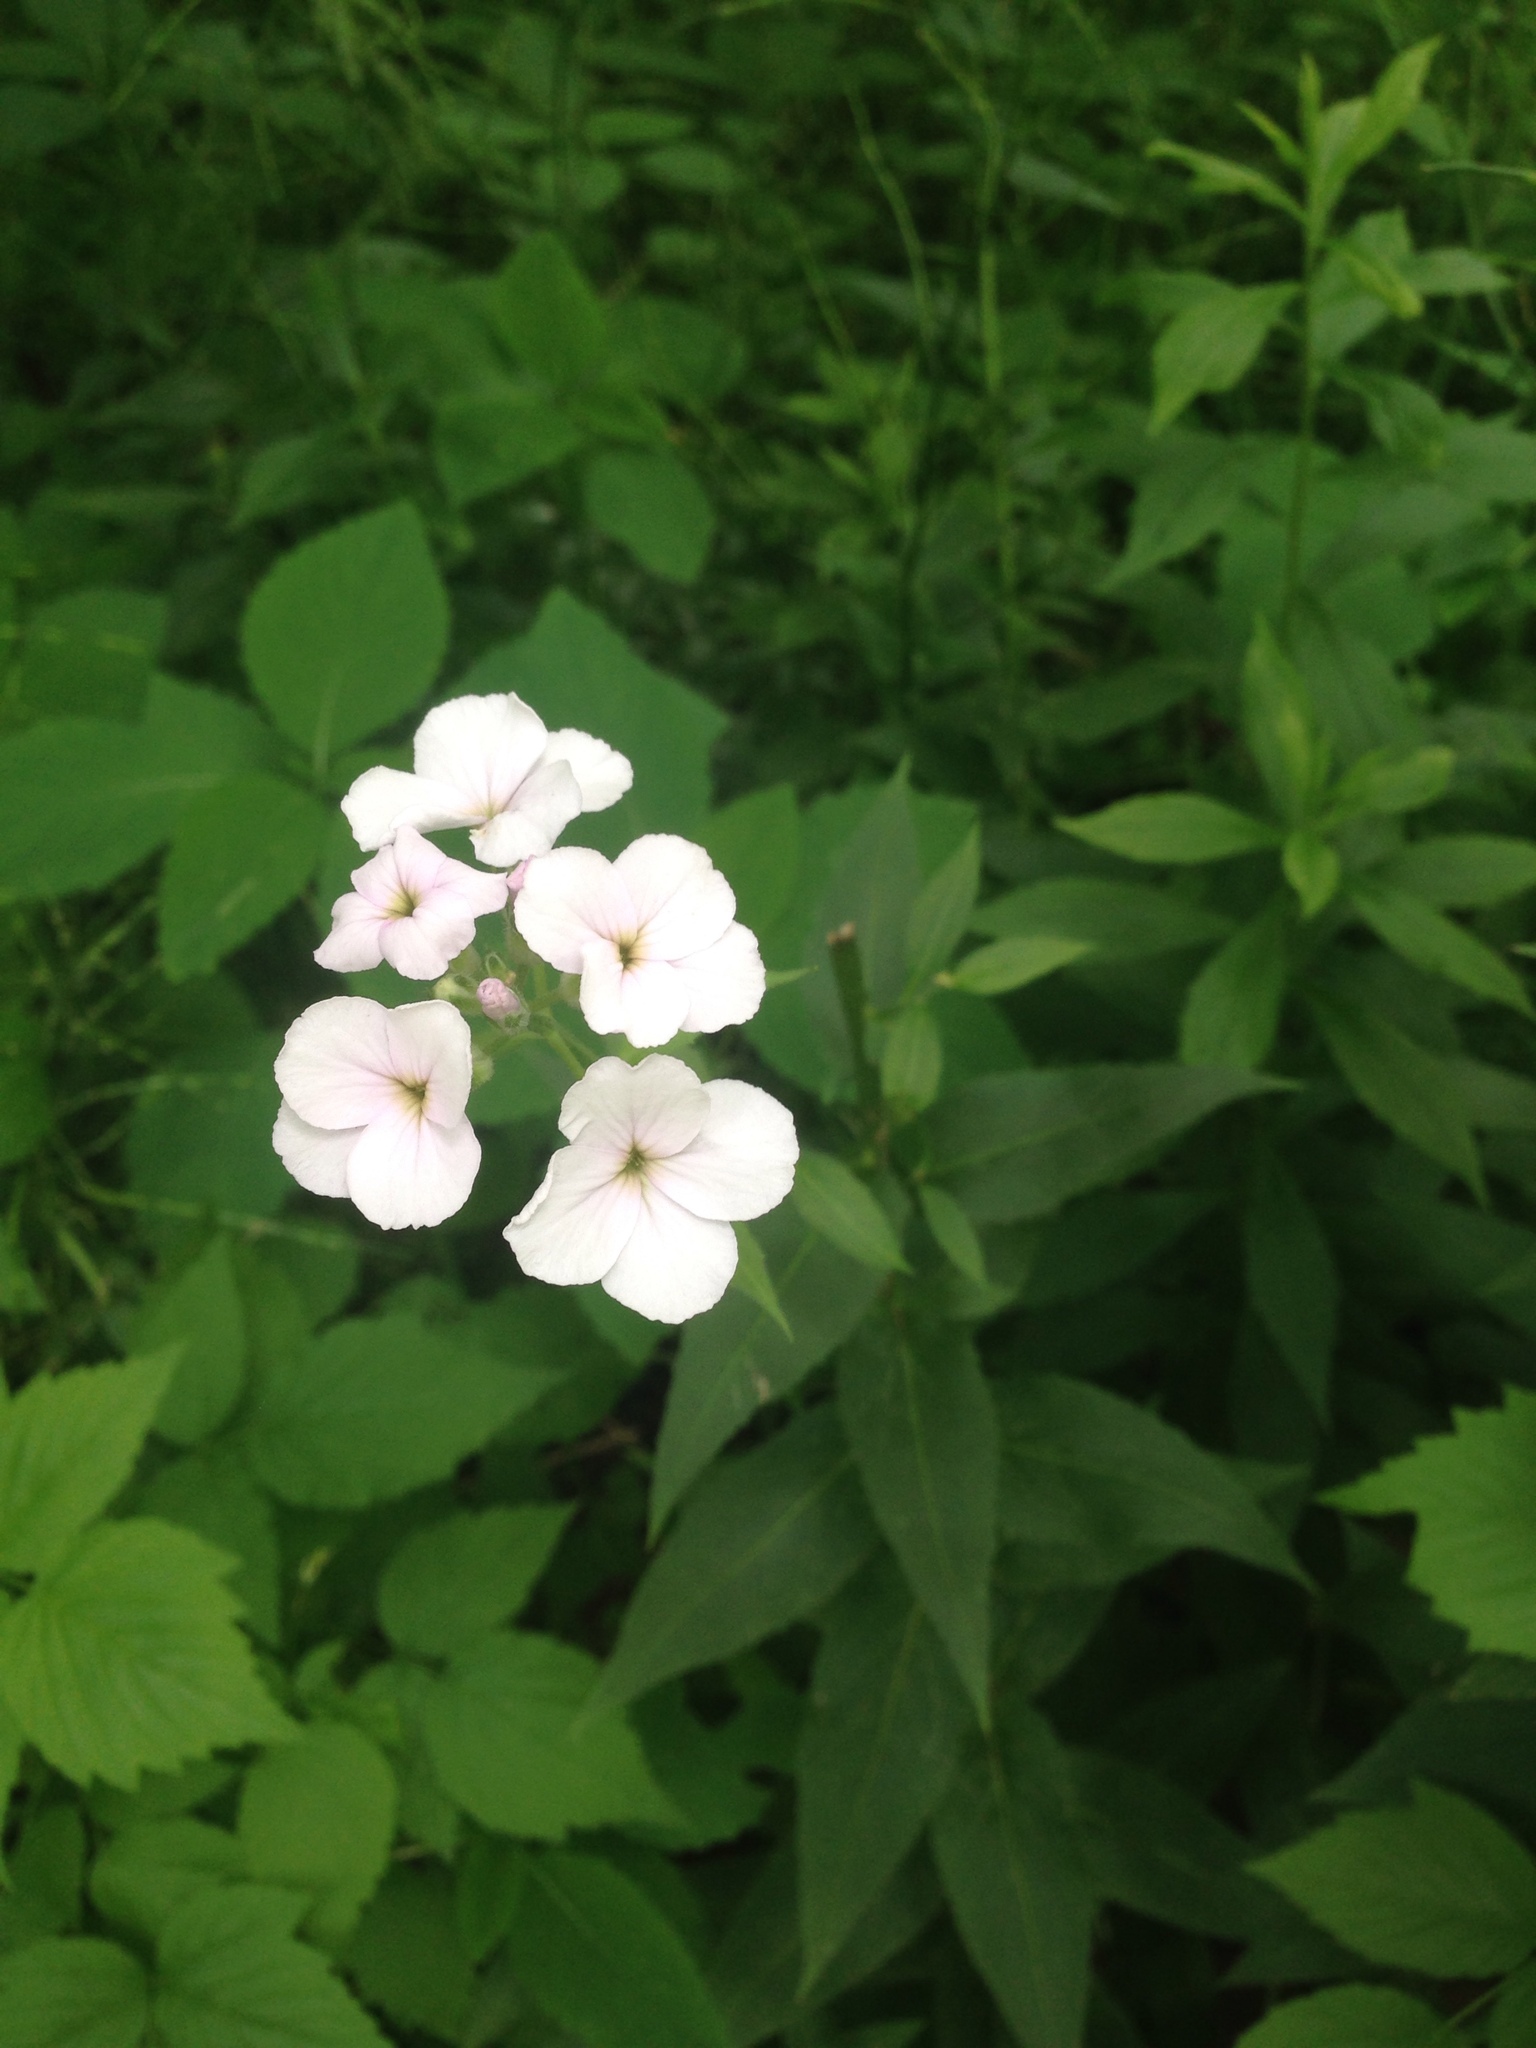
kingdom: Plantae
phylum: Tracheophyta
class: Magnoliopsida
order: Brassicales
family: Brassicaceae
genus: Hesperis
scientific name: Hesperis matronalis
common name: Dame's-violet
